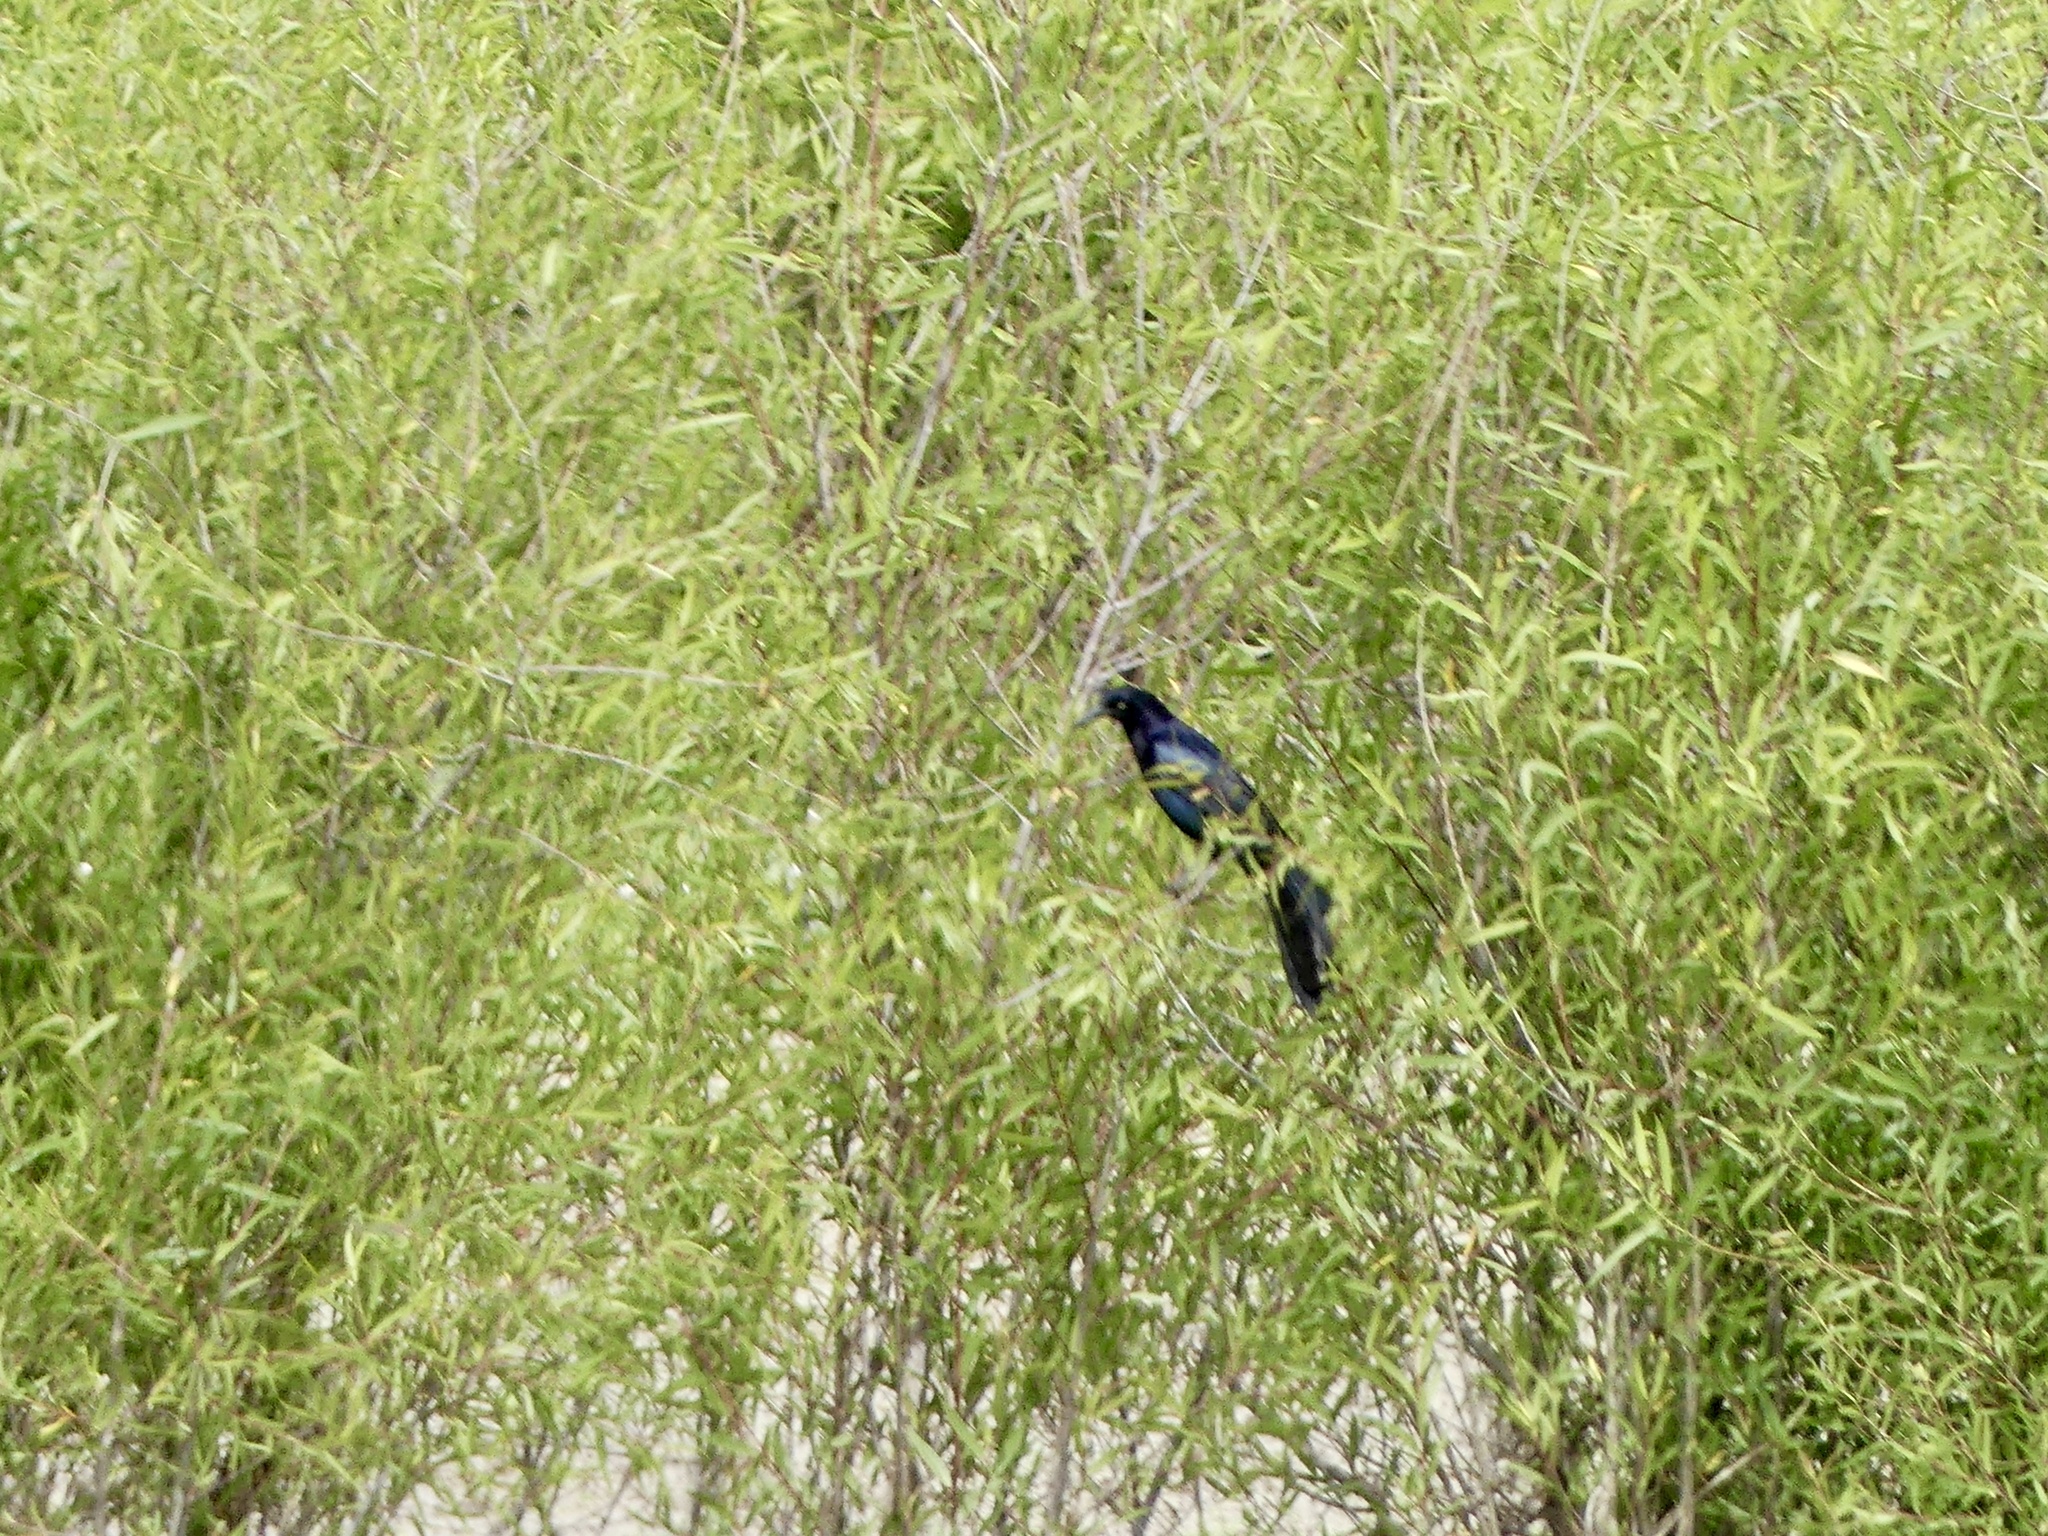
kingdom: Animalia
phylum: Chordata
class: Aves
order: Passeriformes
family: Icteridae
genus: Quiscalus
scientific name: Quiscalus mexicanus
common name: Great-tailed grackle
